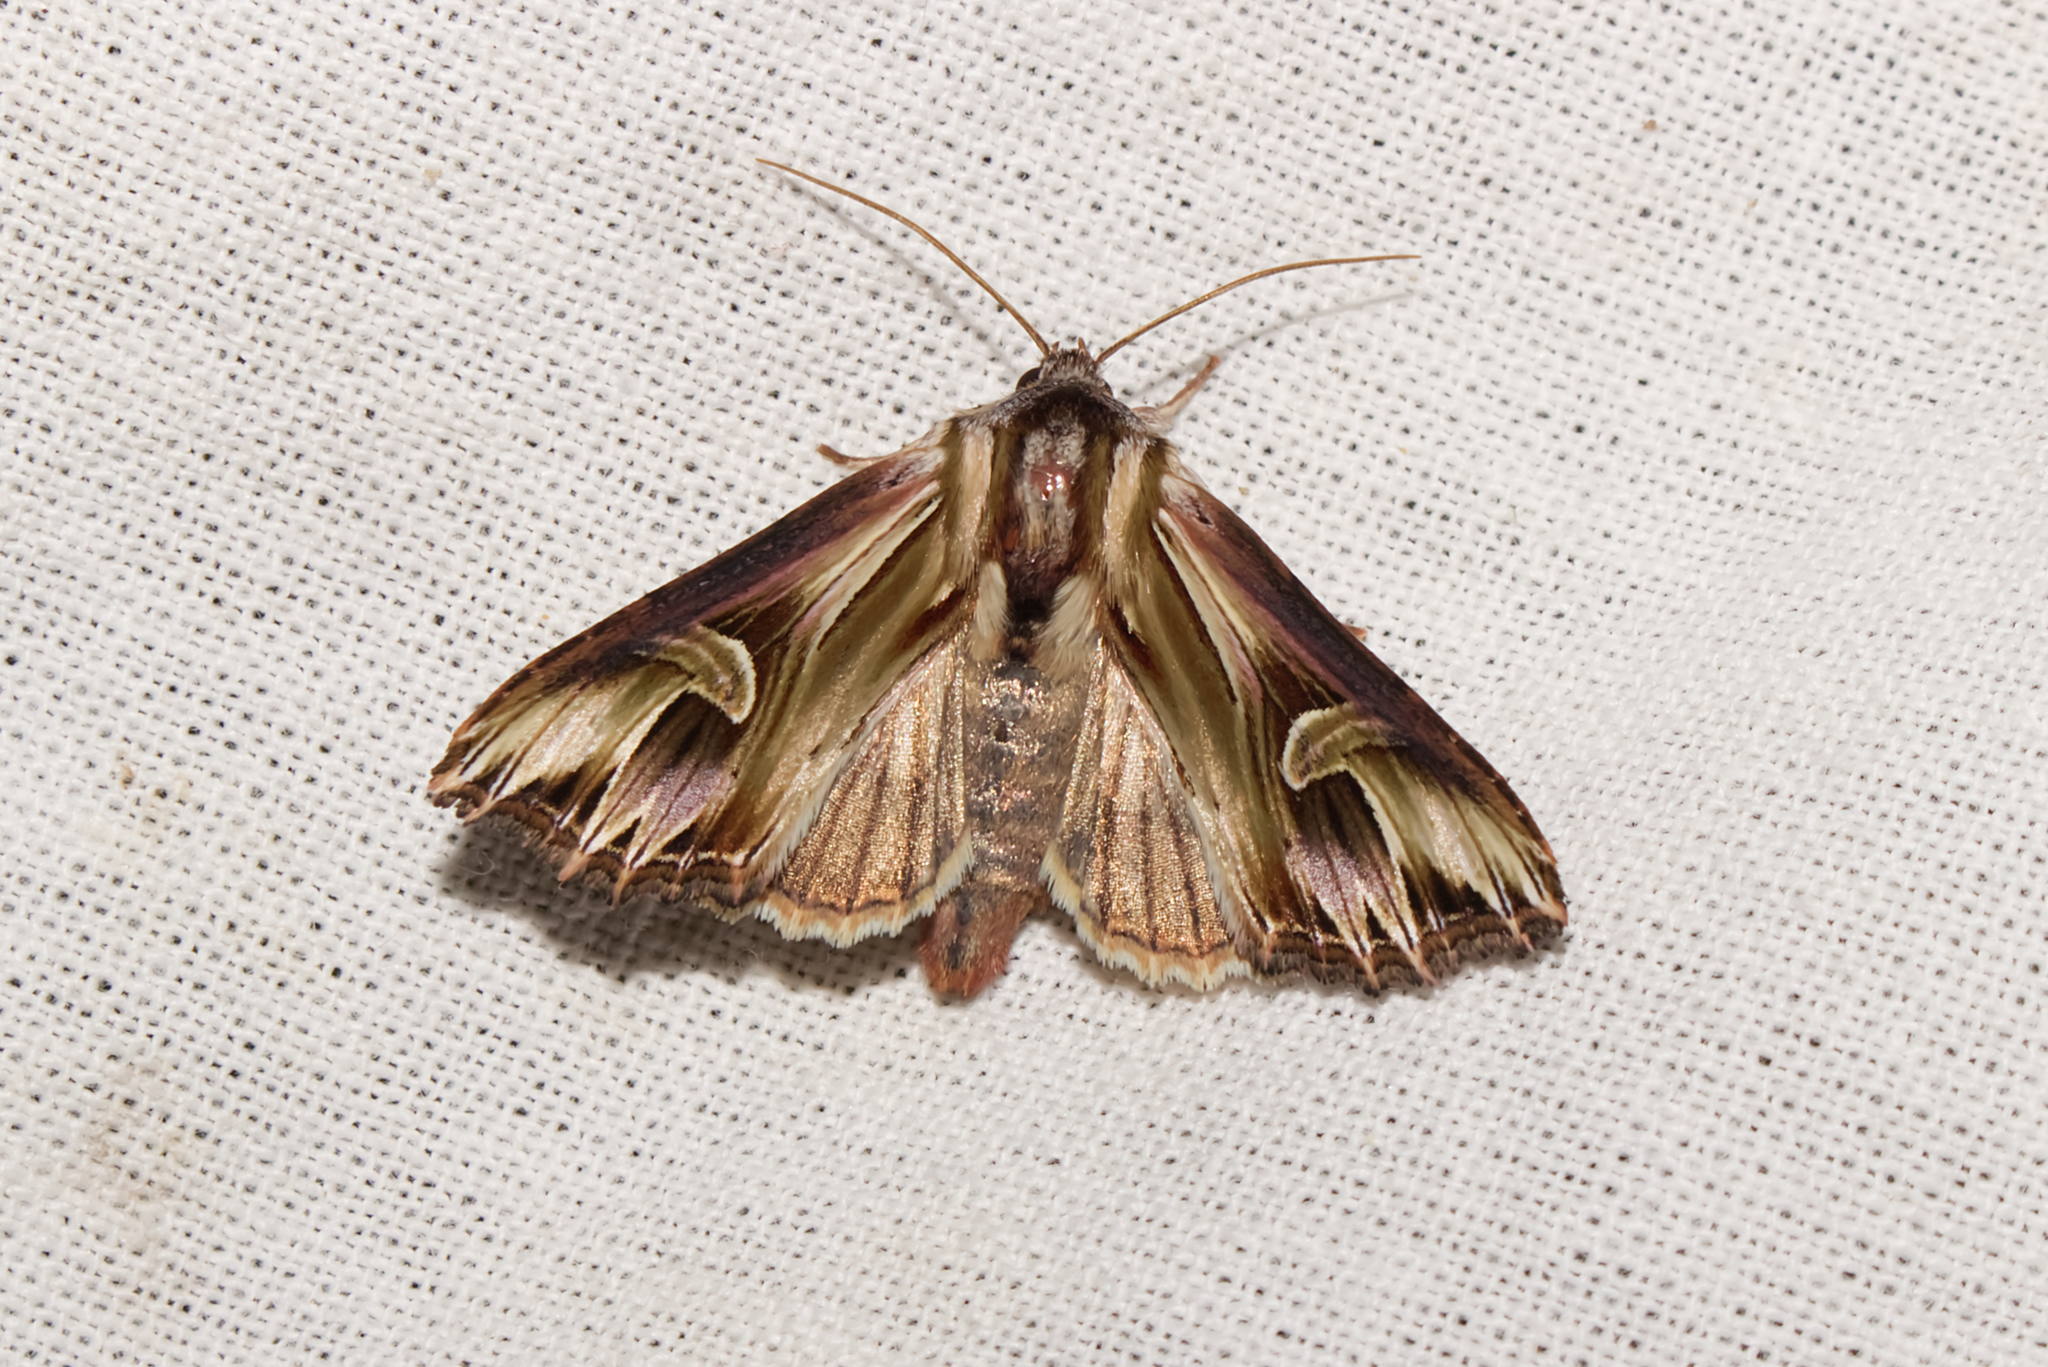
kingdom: Animalia
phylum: Arthropoda
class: Insecta
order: Lepidoptera
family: Noctuidae
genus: Actinotia
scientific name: Actinotia polyodon
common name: Purple cloud
